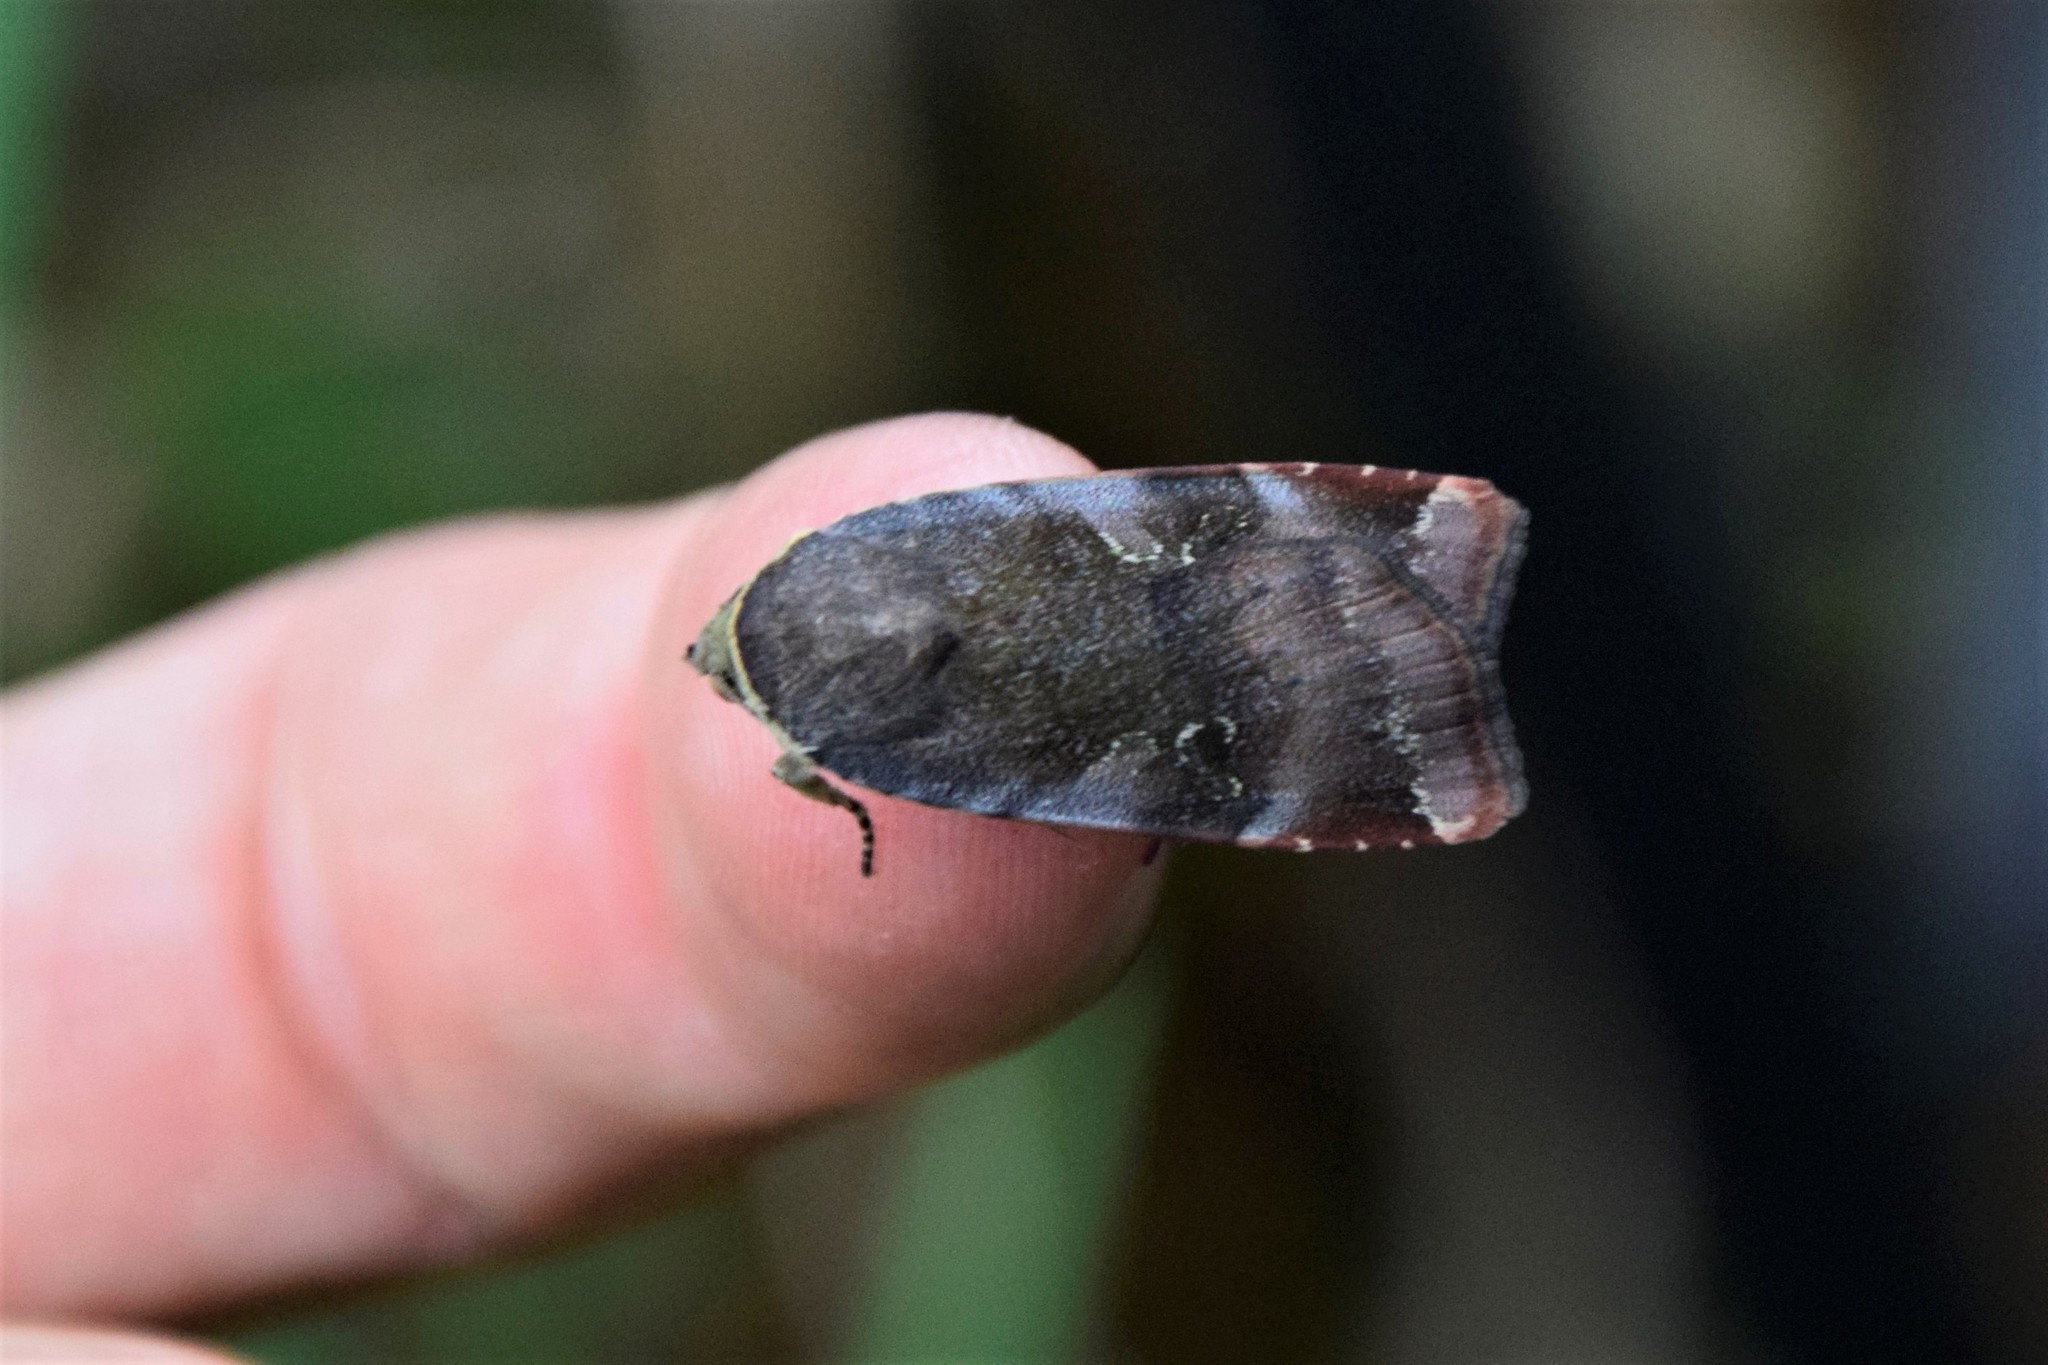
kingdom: Animalia
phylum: Arthropoda
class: Insecta
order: Lepidoptera
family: Noctuidae
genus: Noctua
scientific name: Noctua janthe
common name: Lesser broad-bordered yellow underwing
